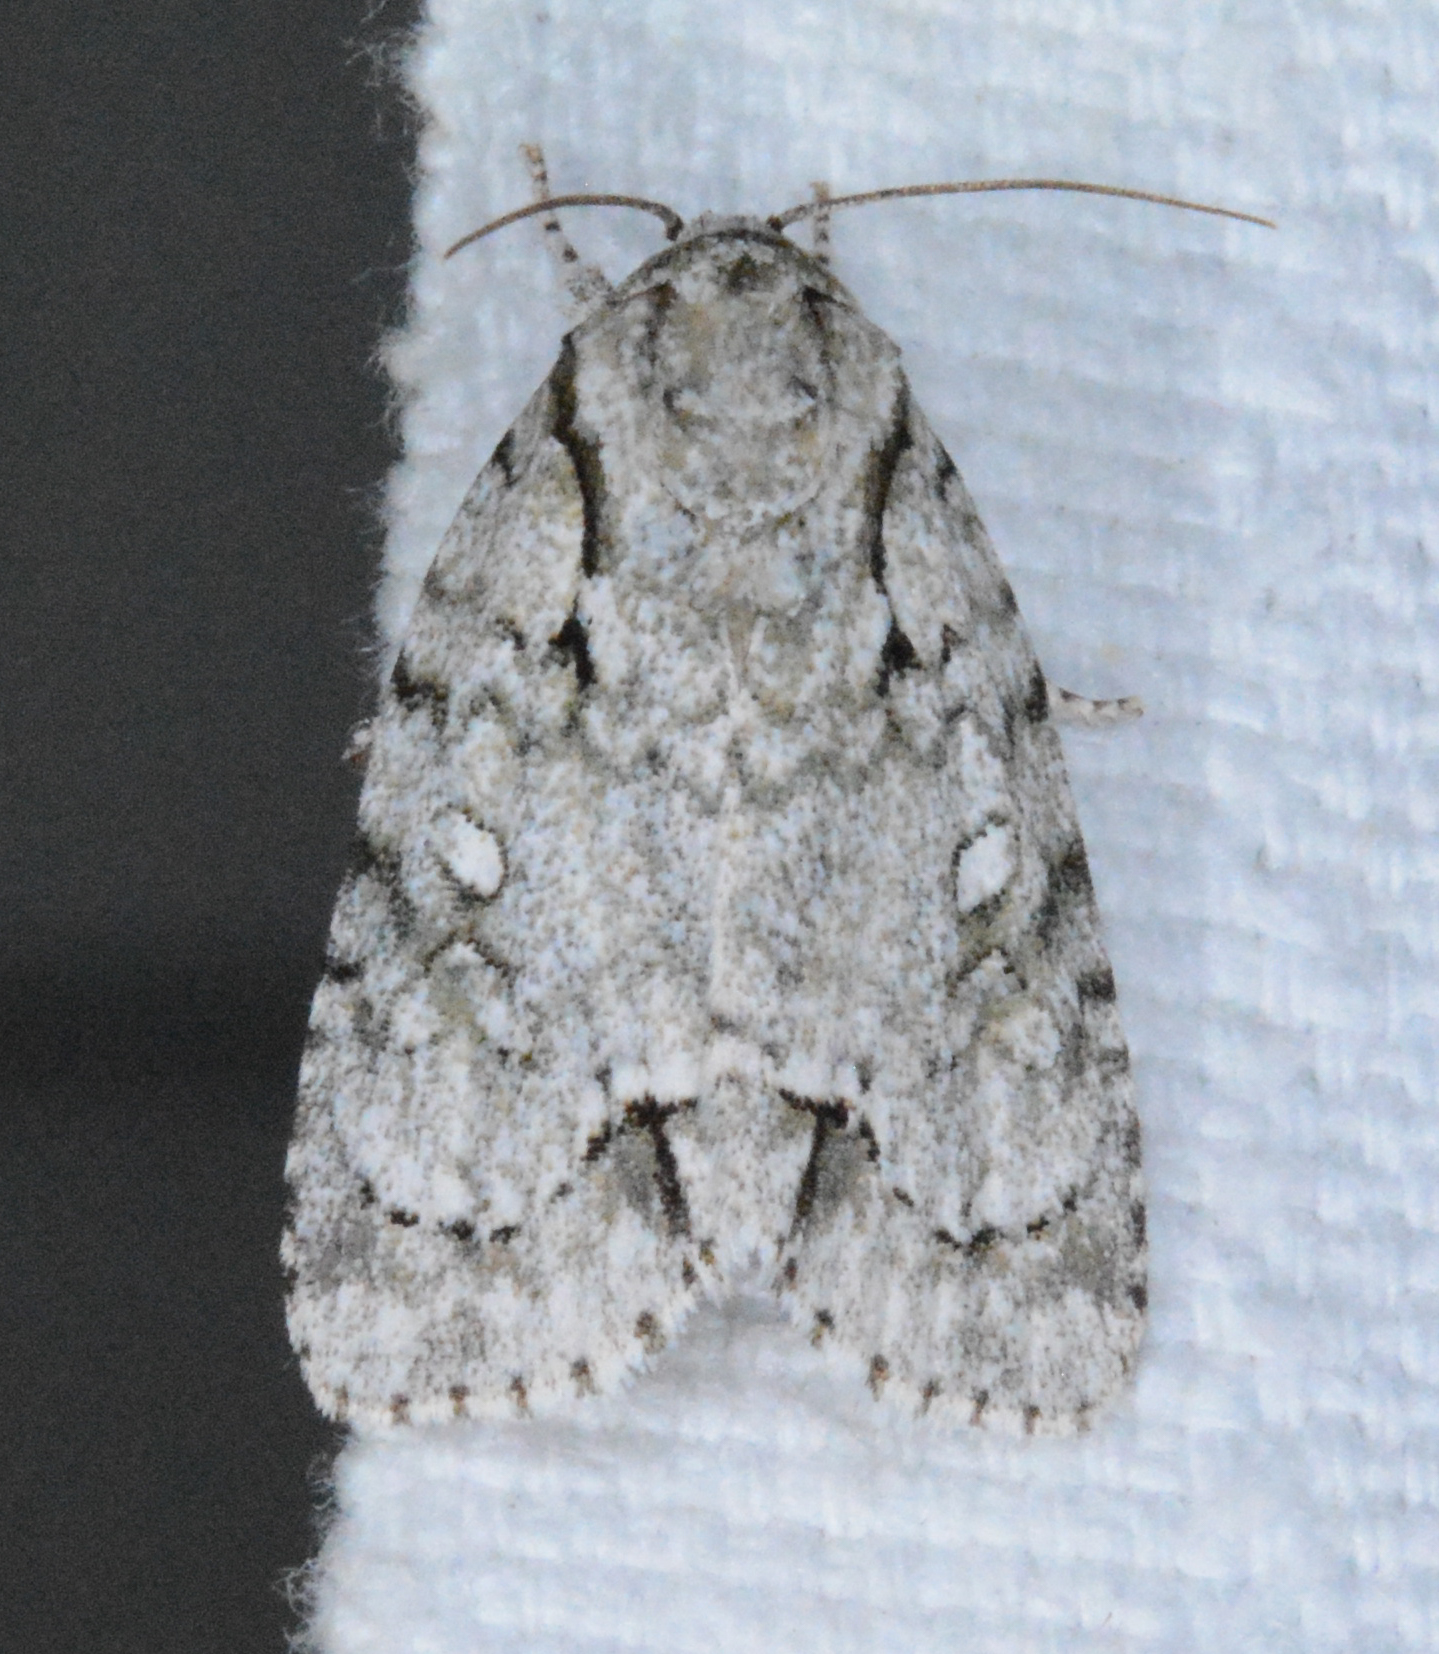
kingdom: Animalia
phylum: Arthropoda
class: Insecta
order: Lepidoptera
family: Noctuidae
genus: Acronicta
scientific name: Acronicta vinnula
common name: Delightful dagger
